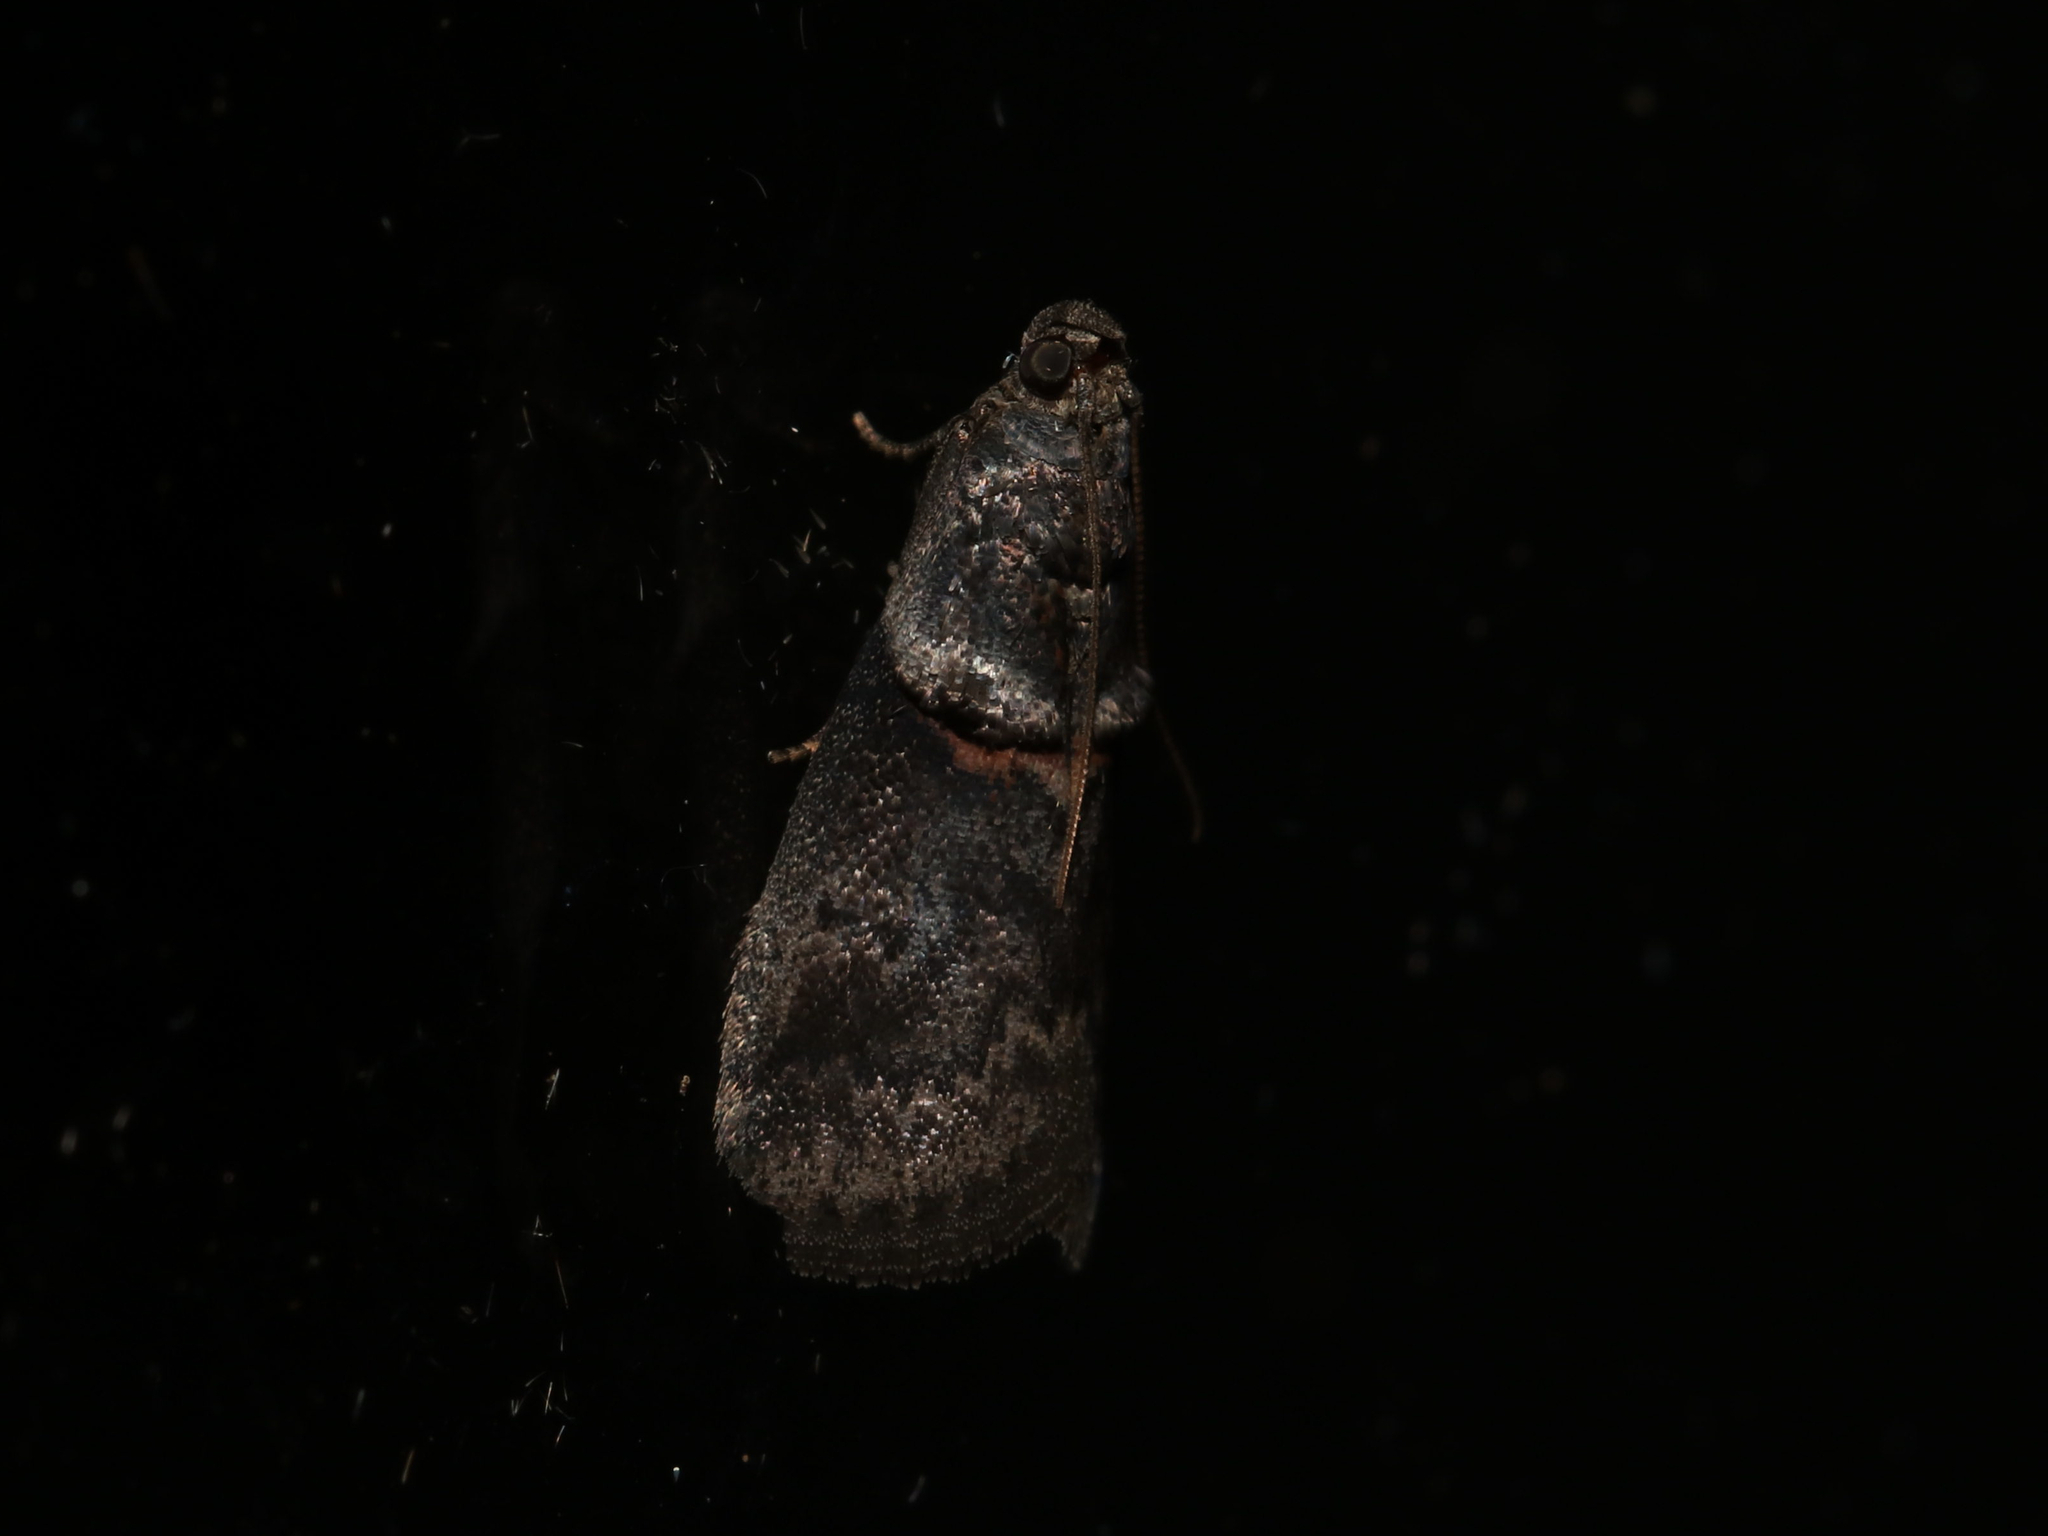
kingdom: Animalia
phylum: Arthropoda
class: Insecta
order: Lepidoptera
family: Pyralidae
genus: Acrobasis
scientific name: Acrobasis caryae
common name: Hickory shoot borer moth
